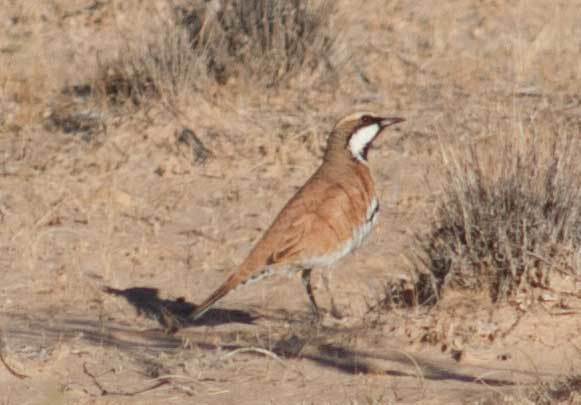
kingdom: Animalia
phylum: Chordata
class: Aves
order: Passeriformes
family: Psophodidae
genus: Cinclosoma
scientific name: Cinclosoma cinnamomeum
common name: Cinnamon quail-thrush
